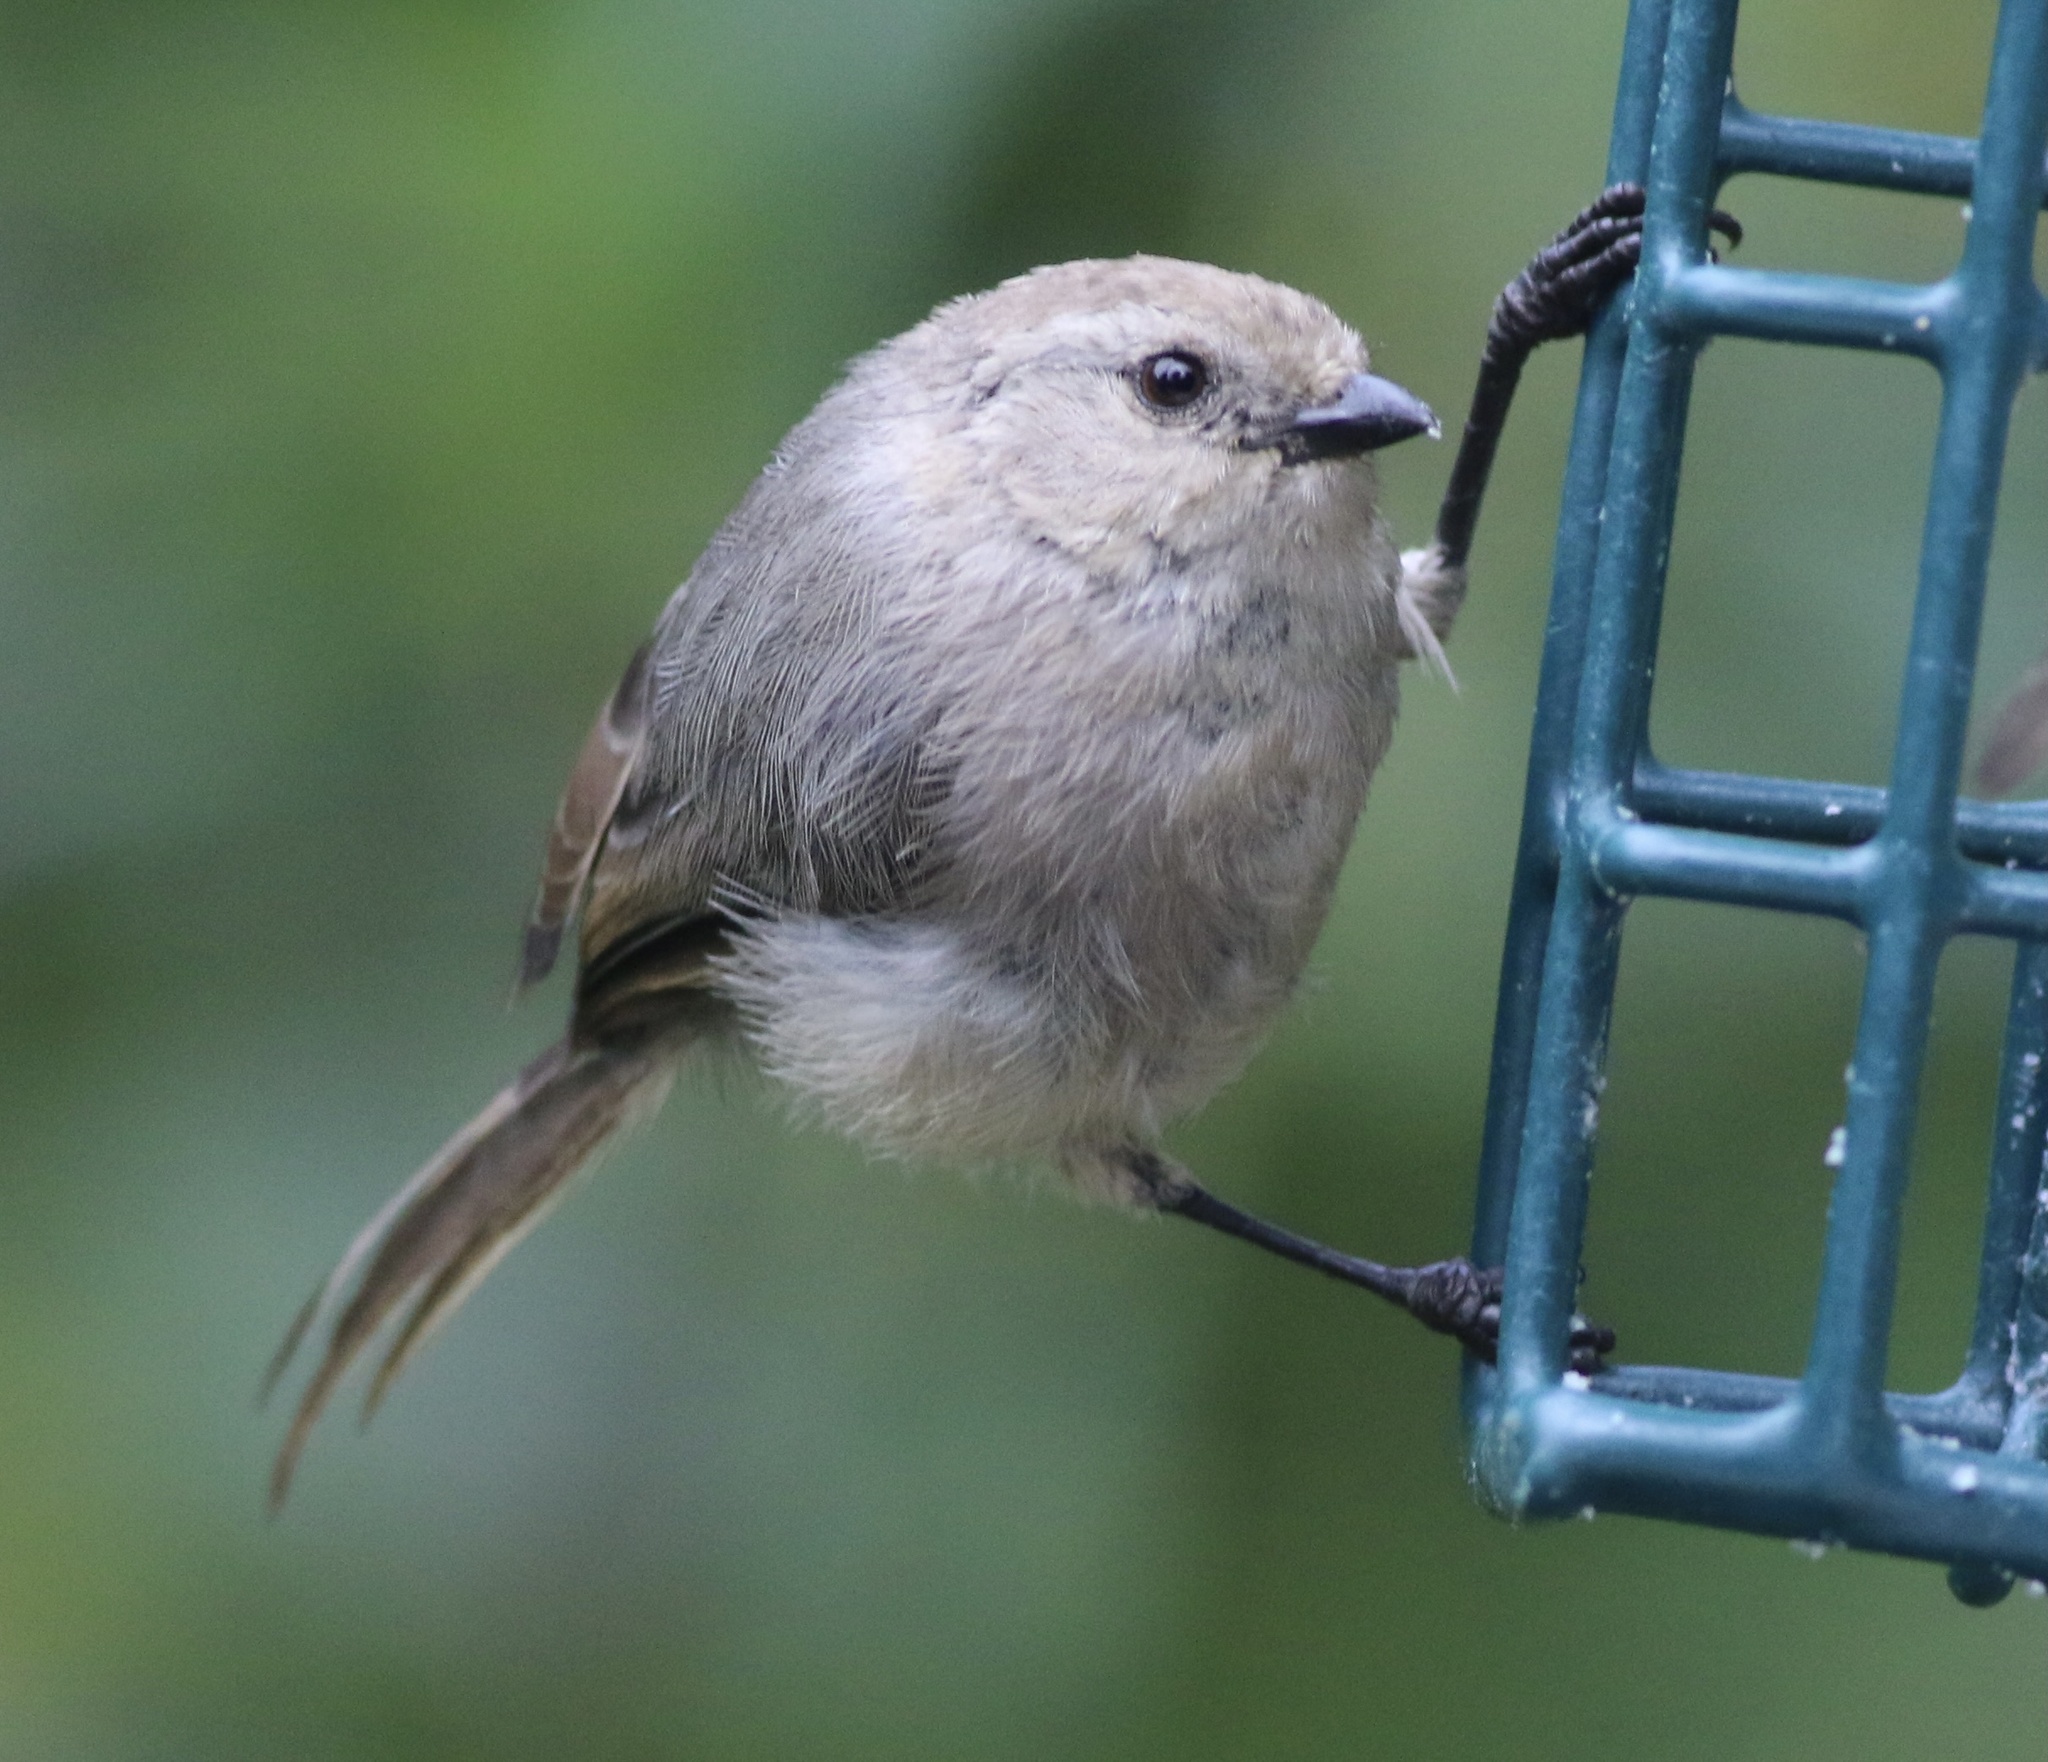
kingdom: Animalia
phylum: Chordata
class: Aves
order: Passeriformes
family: Aegithalidae
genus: Psaltriparus
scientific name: Psaltriparus minimus
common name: American bushtit
